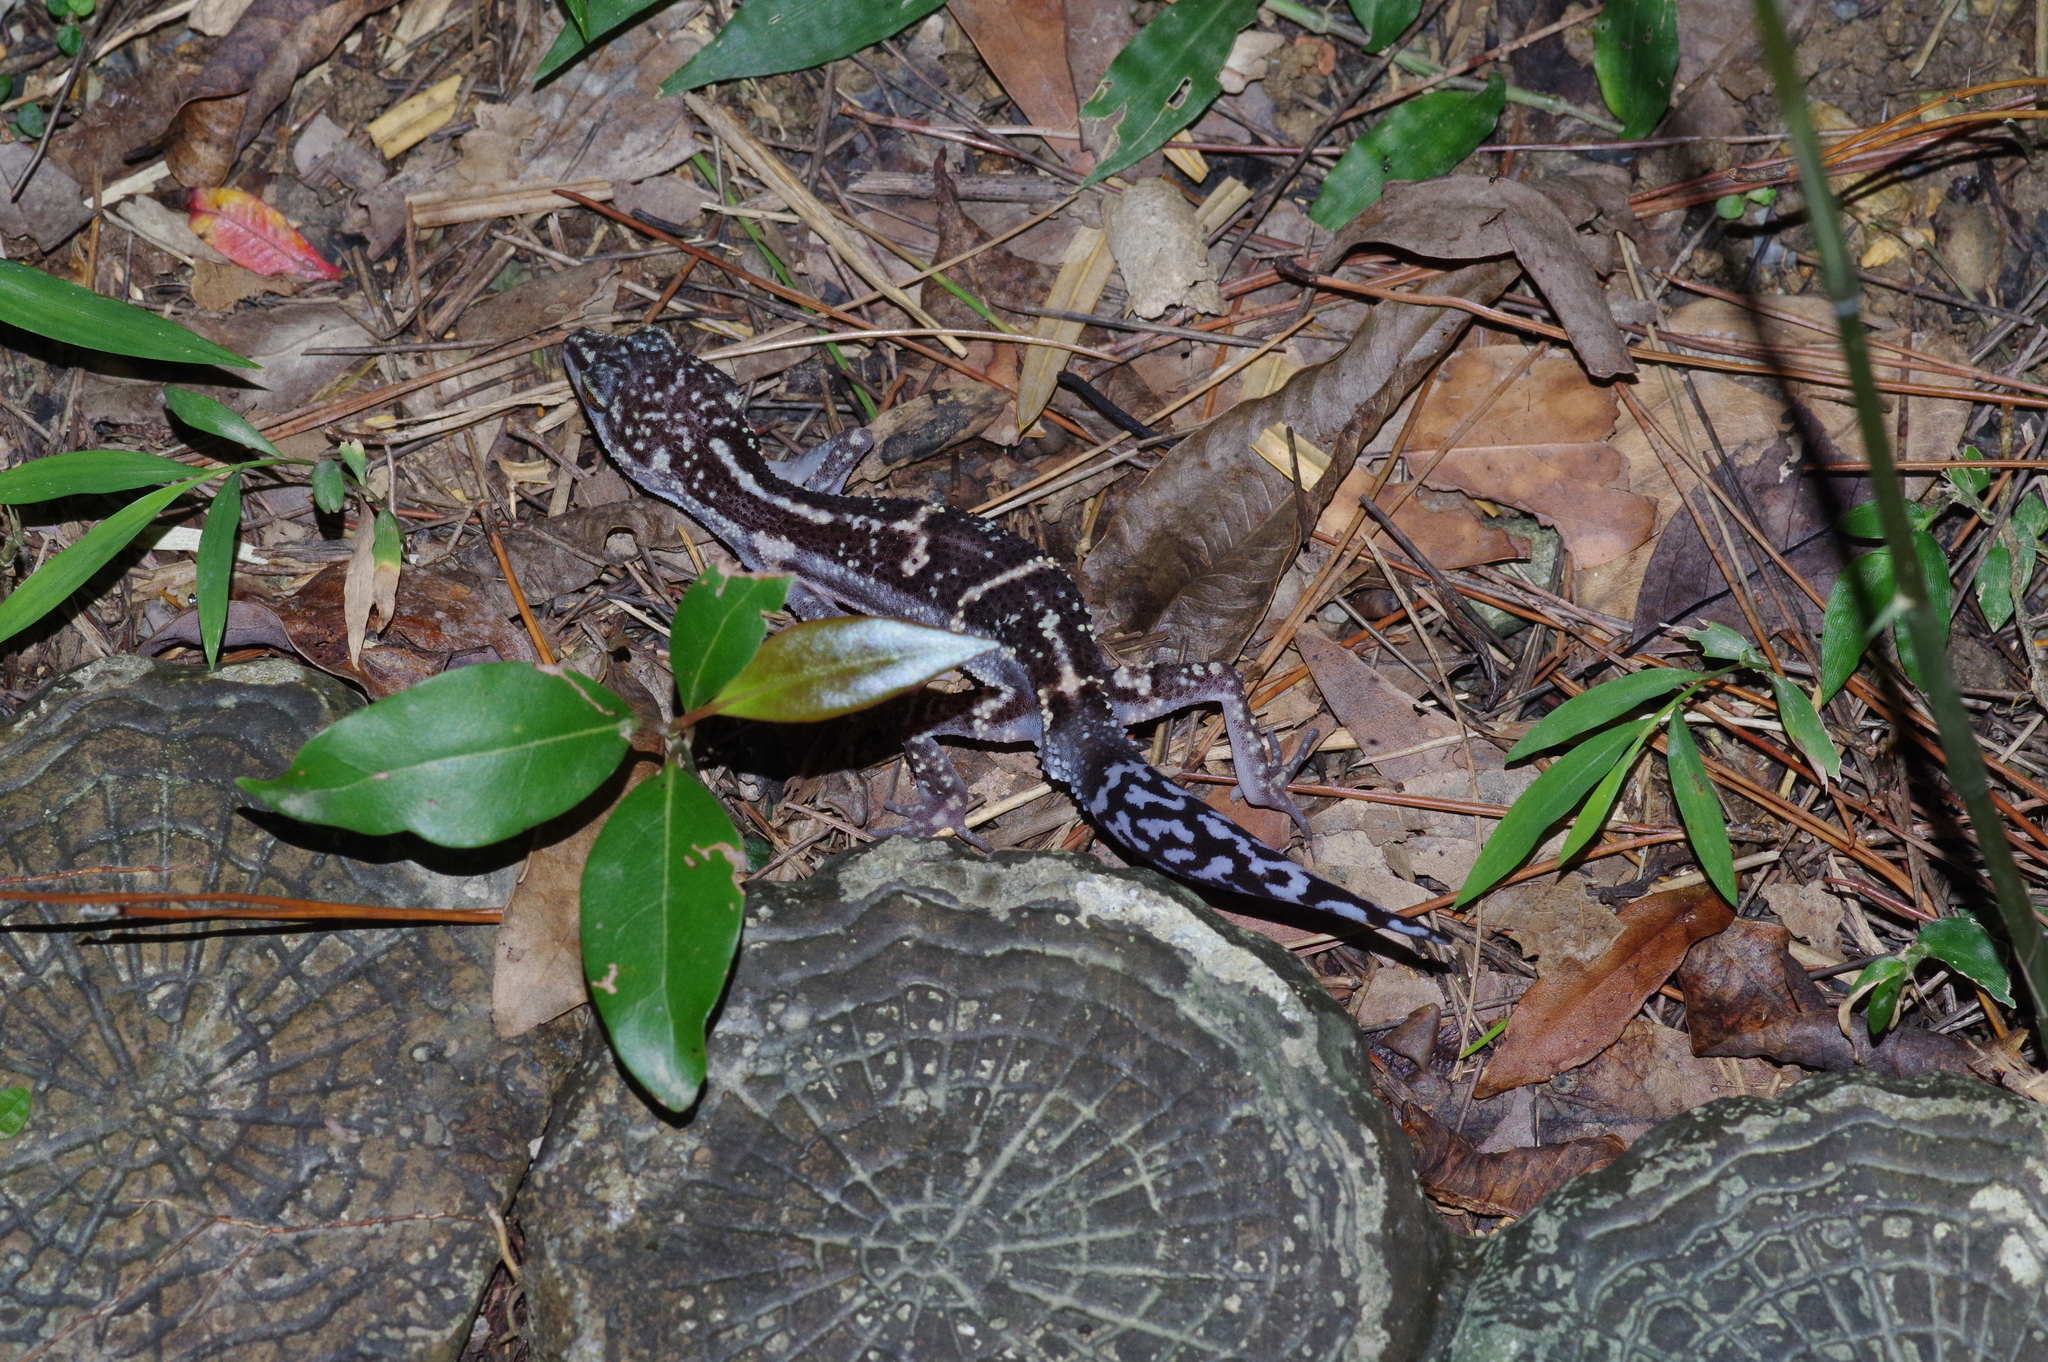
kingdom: Animalia
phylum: Chordata
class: Squamata
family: Eublepharidae
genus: Goniurosaurus
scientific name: Goniurosaurus kuroiwae
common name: Tokashiki gecko
